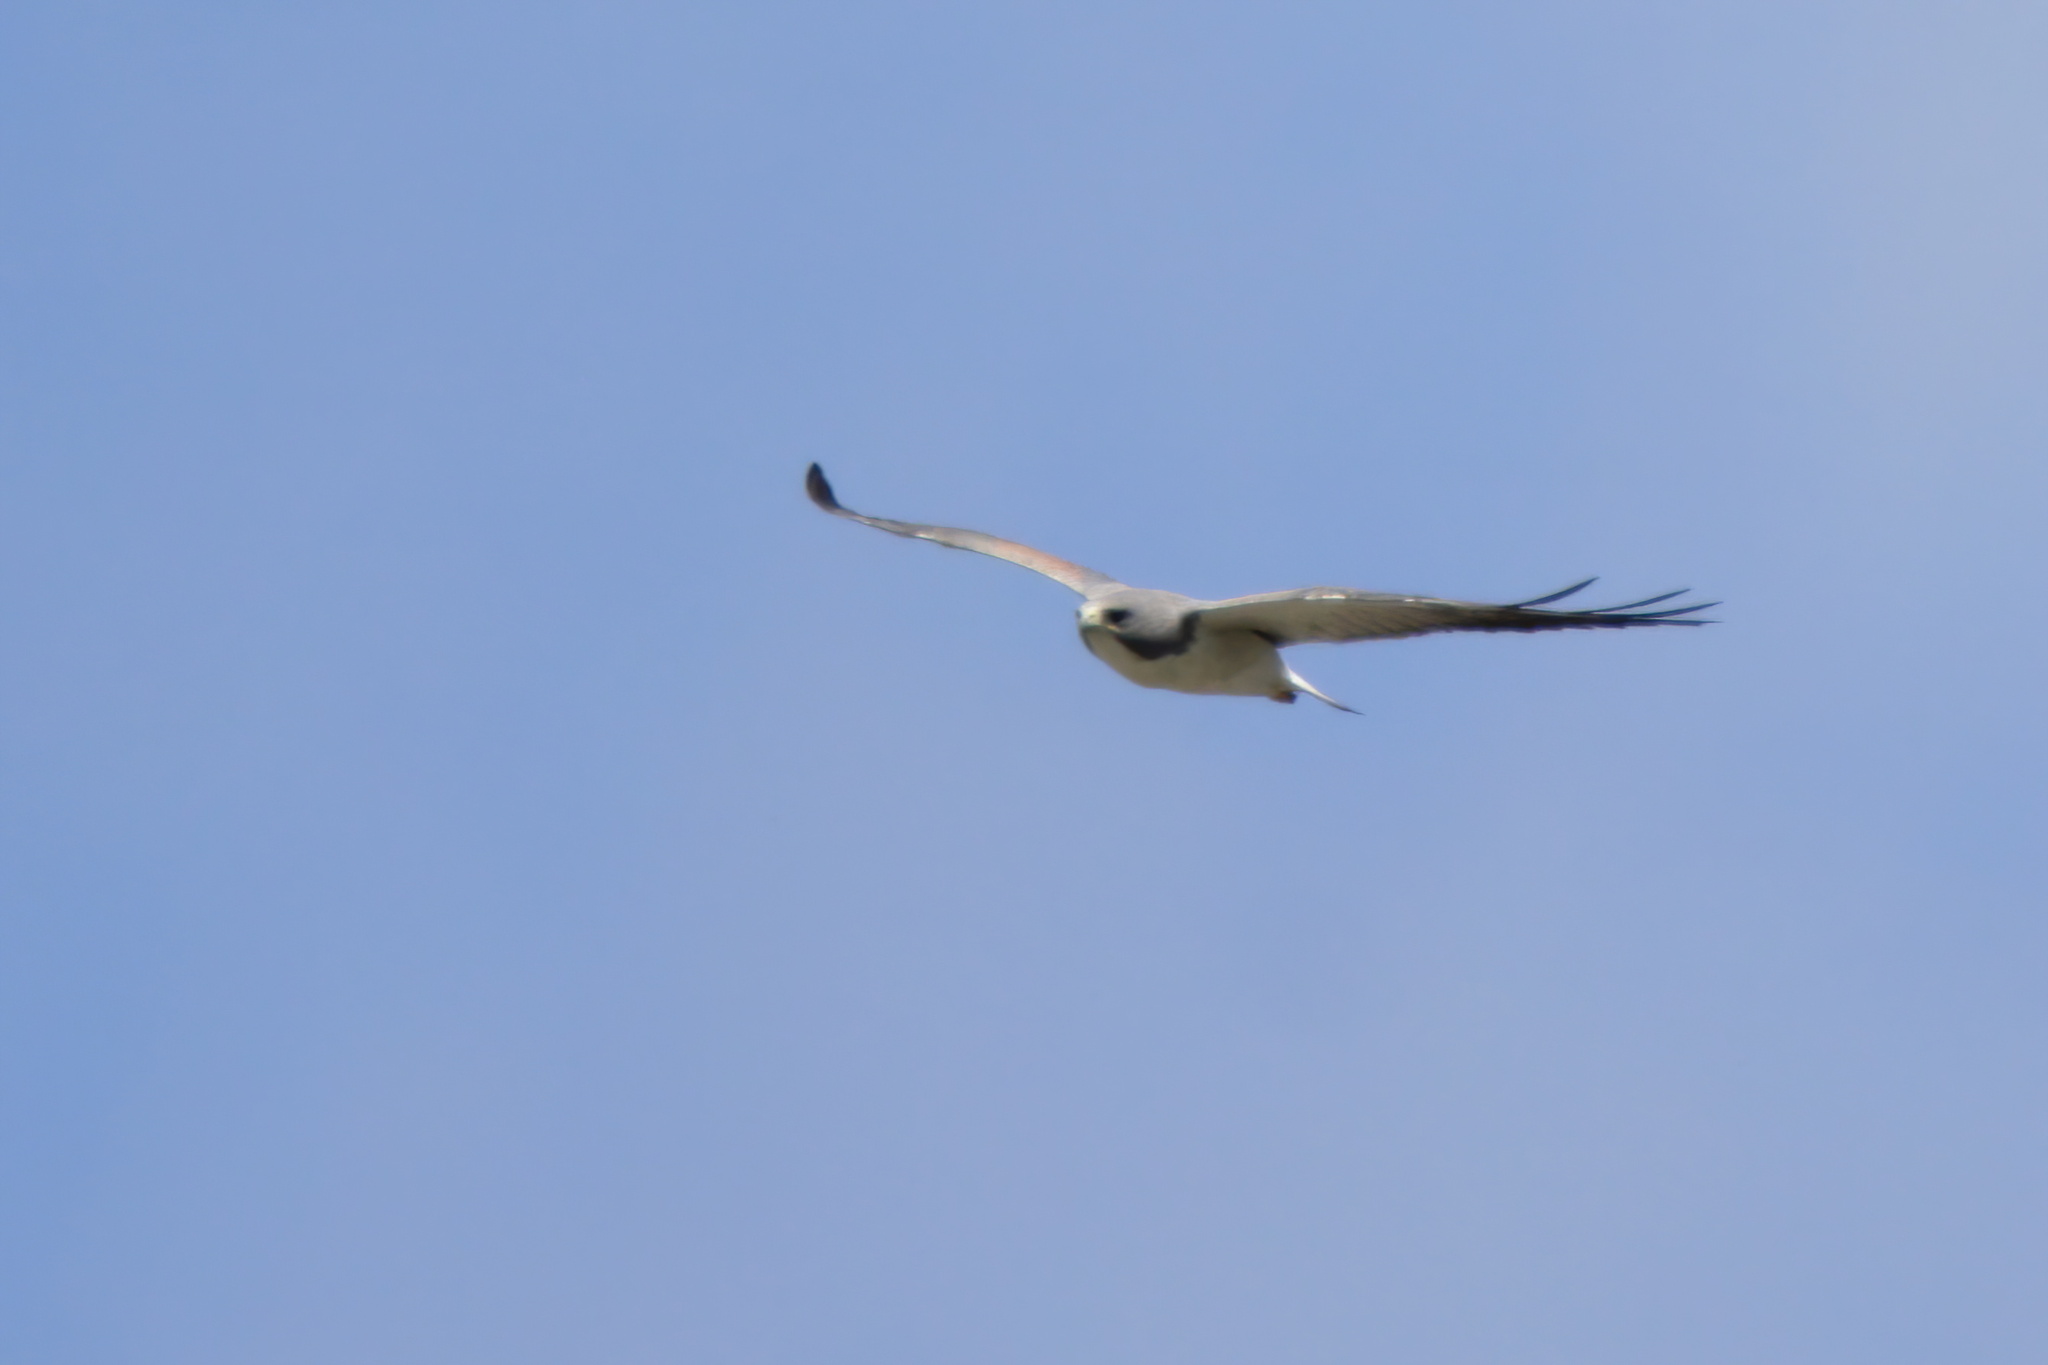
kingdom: Animalia
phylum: Chordata
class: Aves
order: Accipitriformes
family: Accipitridae
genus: Buteo
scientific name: Buteo albicaudatus
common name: White-tailed hawk
